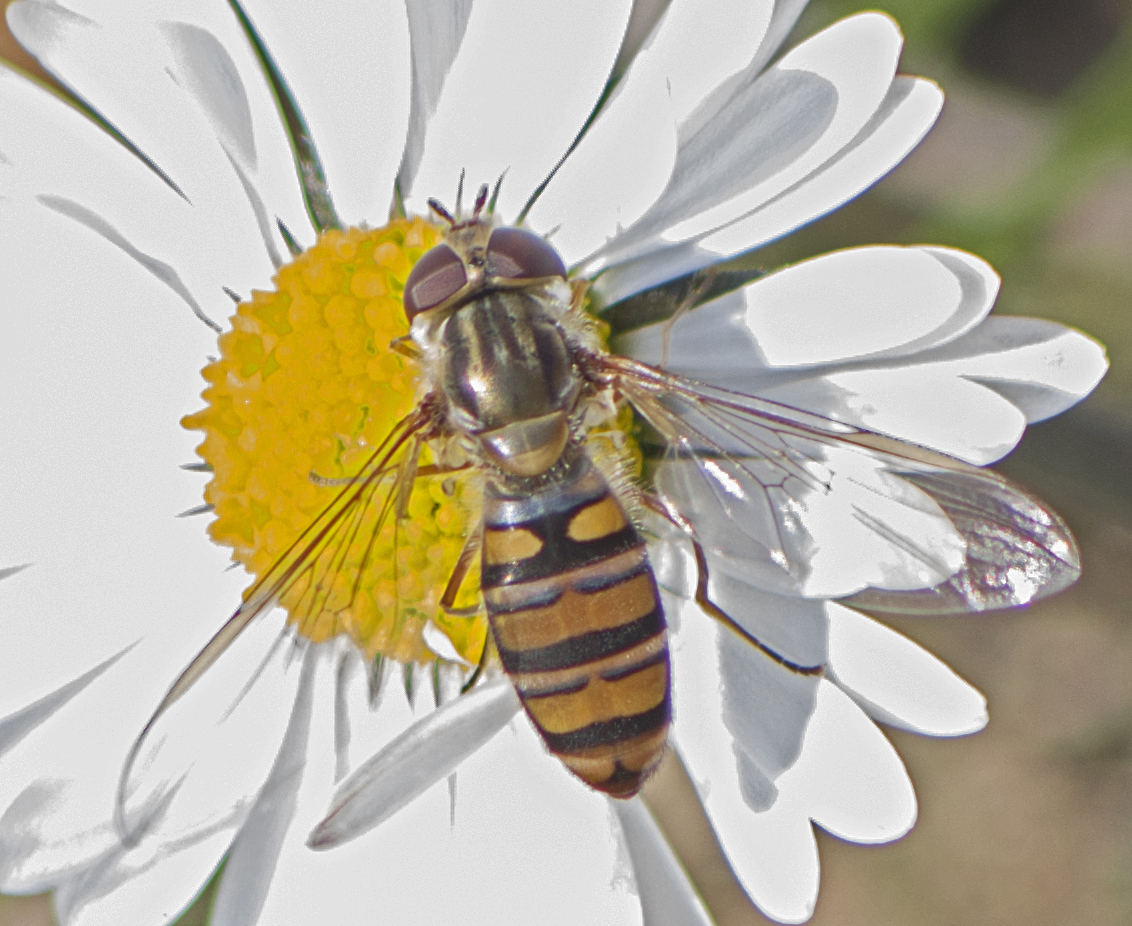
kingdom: Animalia
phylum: Arthropoda
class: Insecta
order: Diptera
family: Syrphidae
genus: Episyrphus
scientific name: Episyrphus balteatus
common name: Marmalade hoverfly
